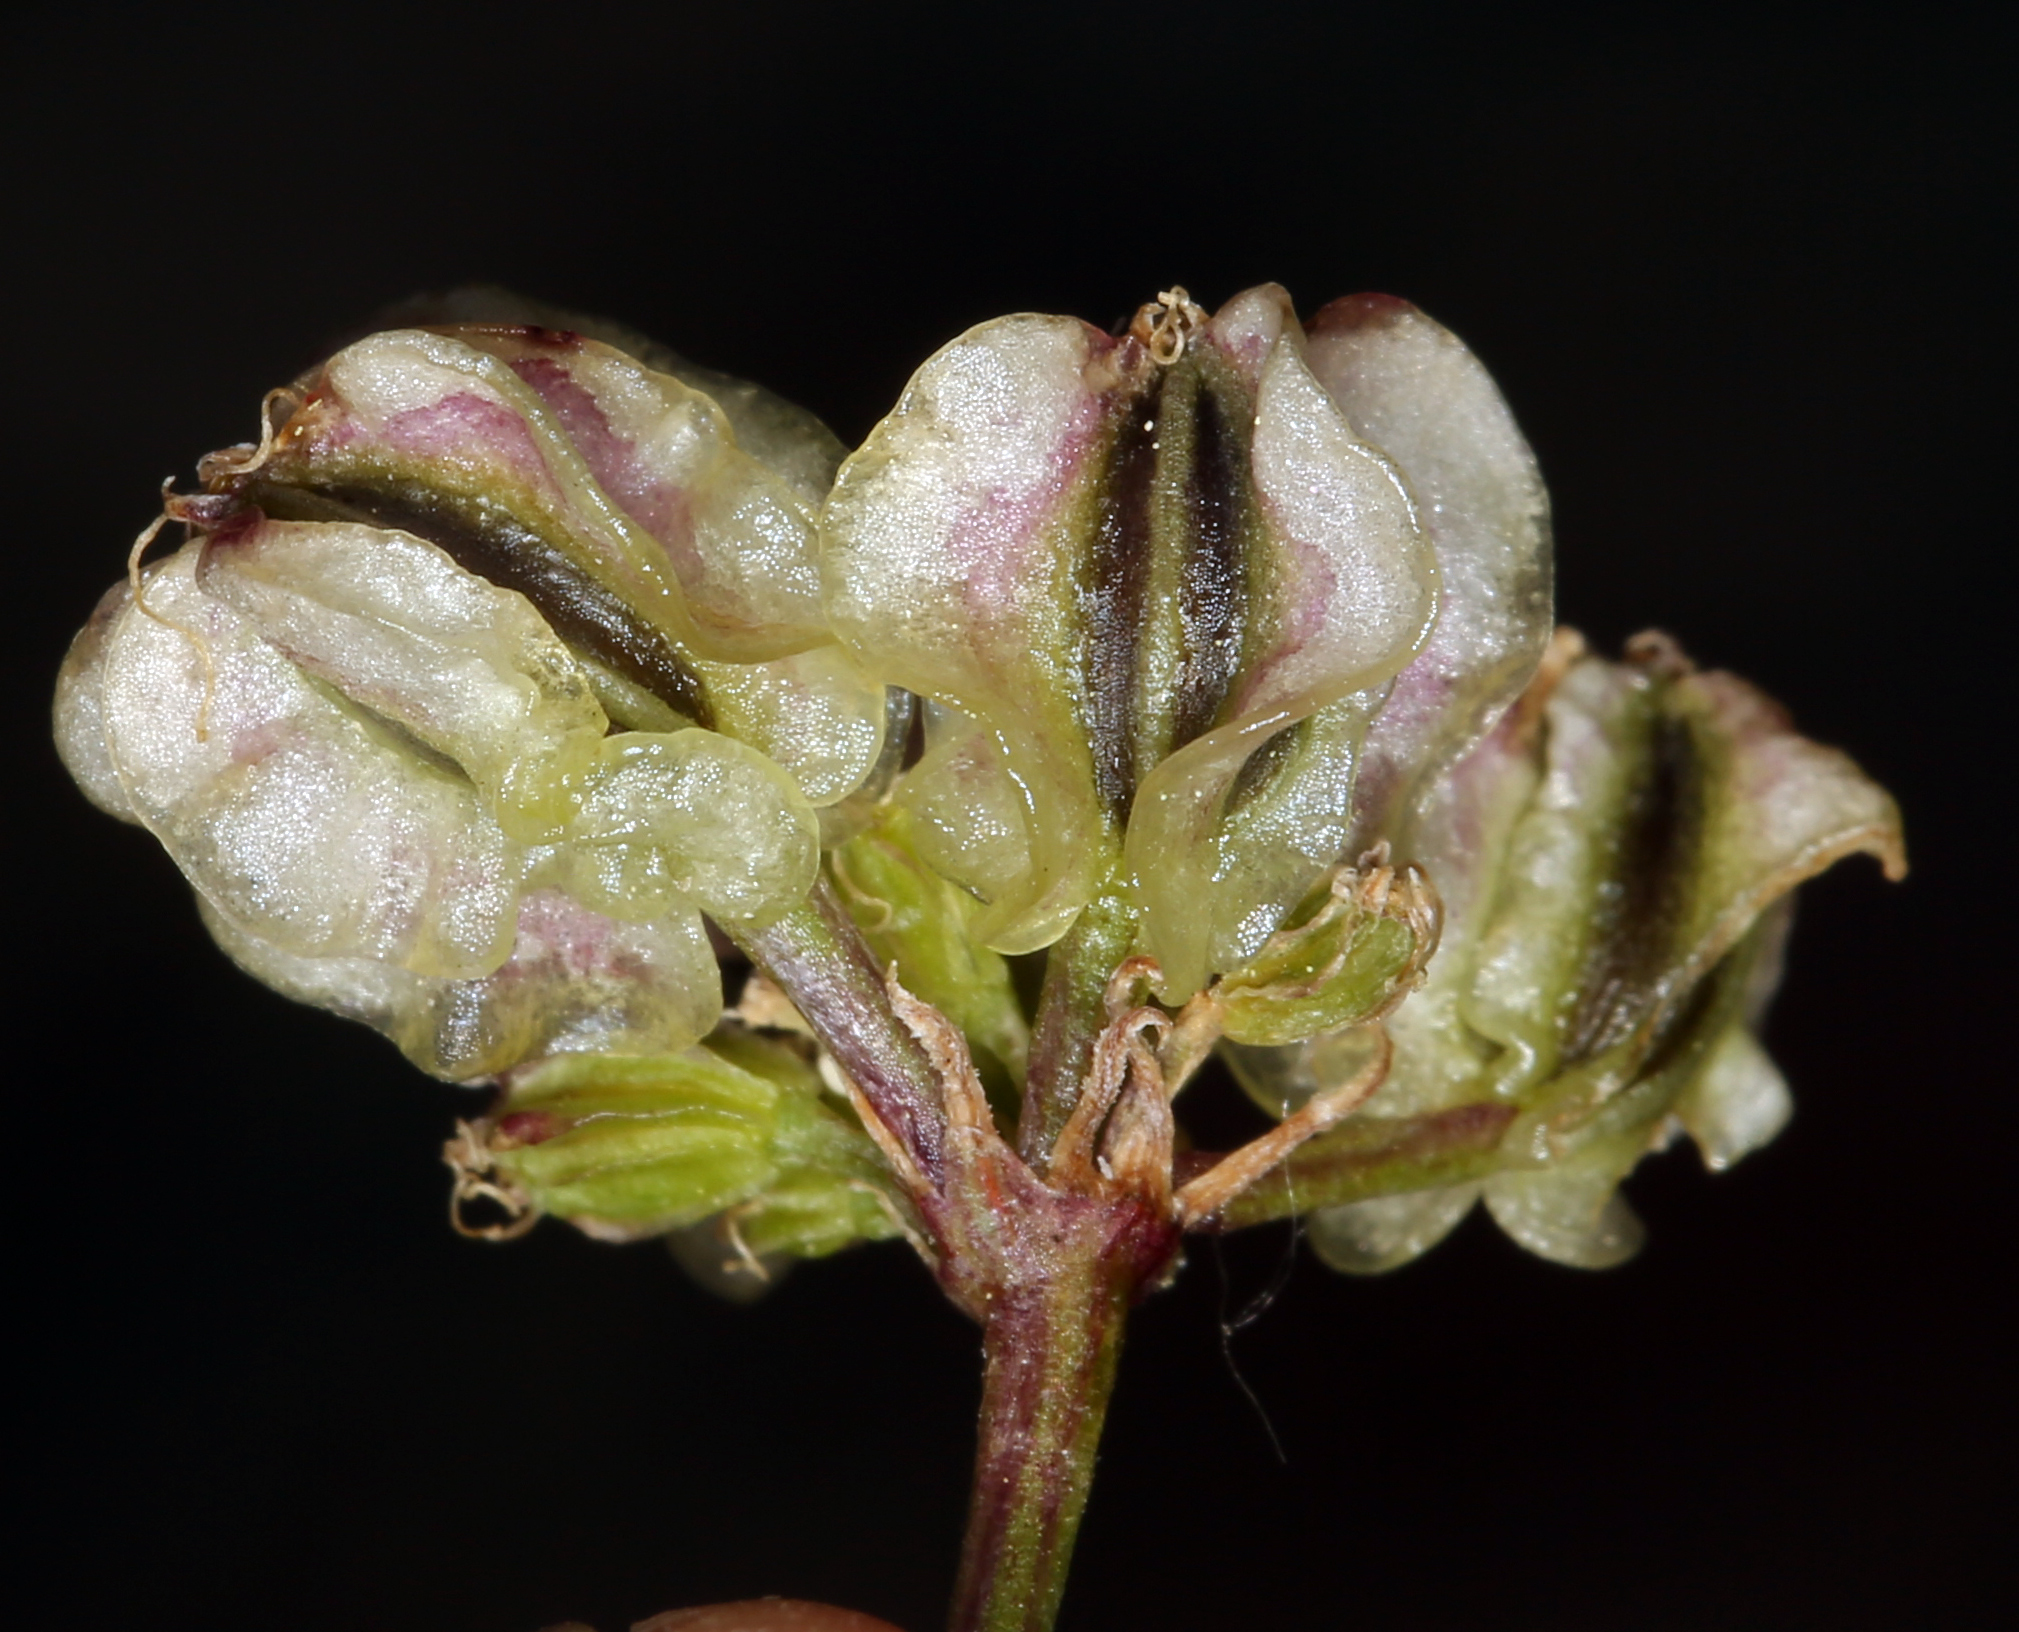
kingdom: Plantae
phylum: Tracheophyta
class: Magnoliopsida
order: Apiales
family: Apiaceae
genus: Aulospermum
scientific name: Aulospermum aboriginum
